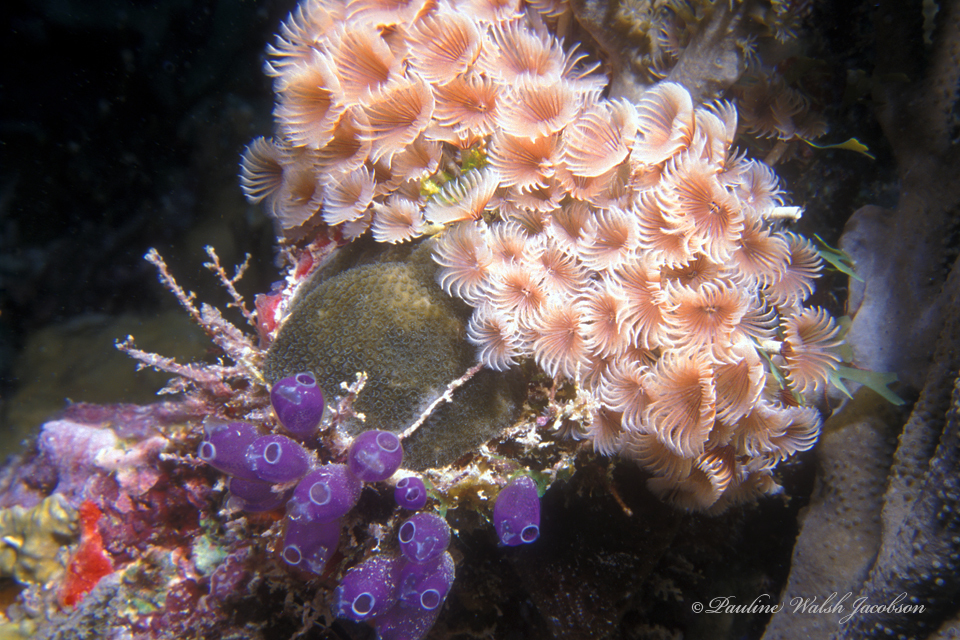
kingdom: Animalia
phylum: Annelida
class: Polychaeta
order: Sabellida
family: Sabellidae
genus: Bispira
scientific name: Bispira brunnea
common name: Social feather duster
